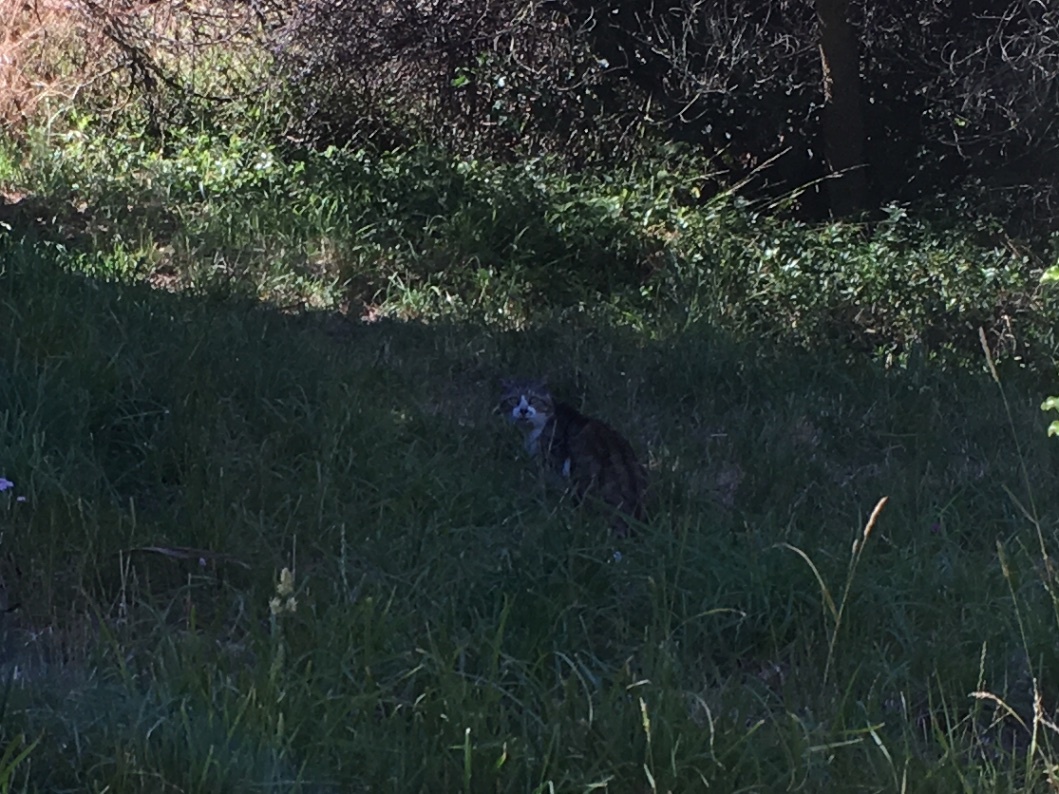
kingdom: Animalia
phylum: Chordata
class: Mammalia
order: Carnivora
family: Felidae
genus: Felis
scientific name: Felis catus
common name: Domestic cat
